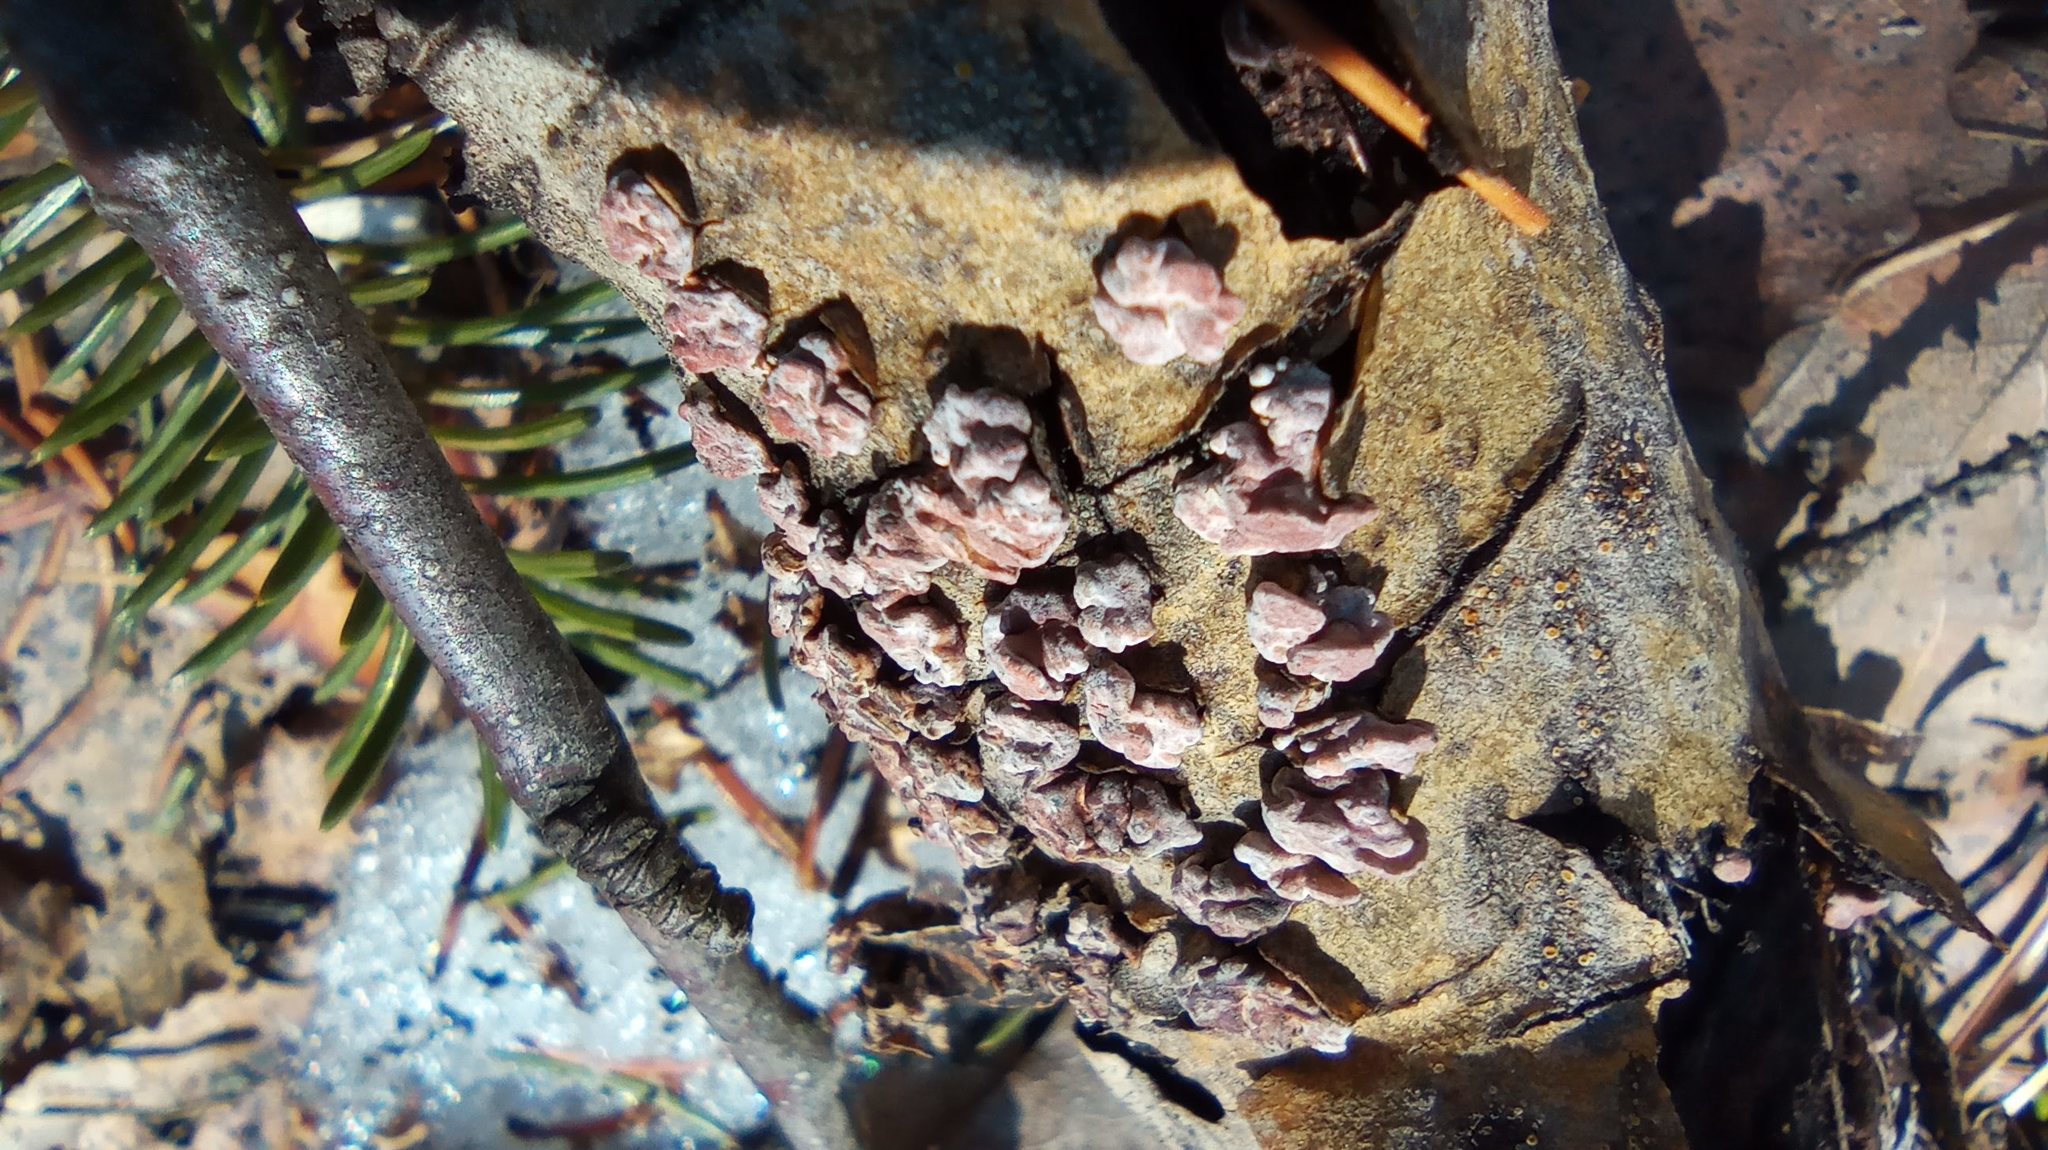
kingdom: Fungi
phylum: Basidiomycota
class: Agaricomycetes
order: Russulales
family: Peniophoraceae
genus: Peniophora
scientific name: Peniophora rufa
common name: Red tree brain fungus
